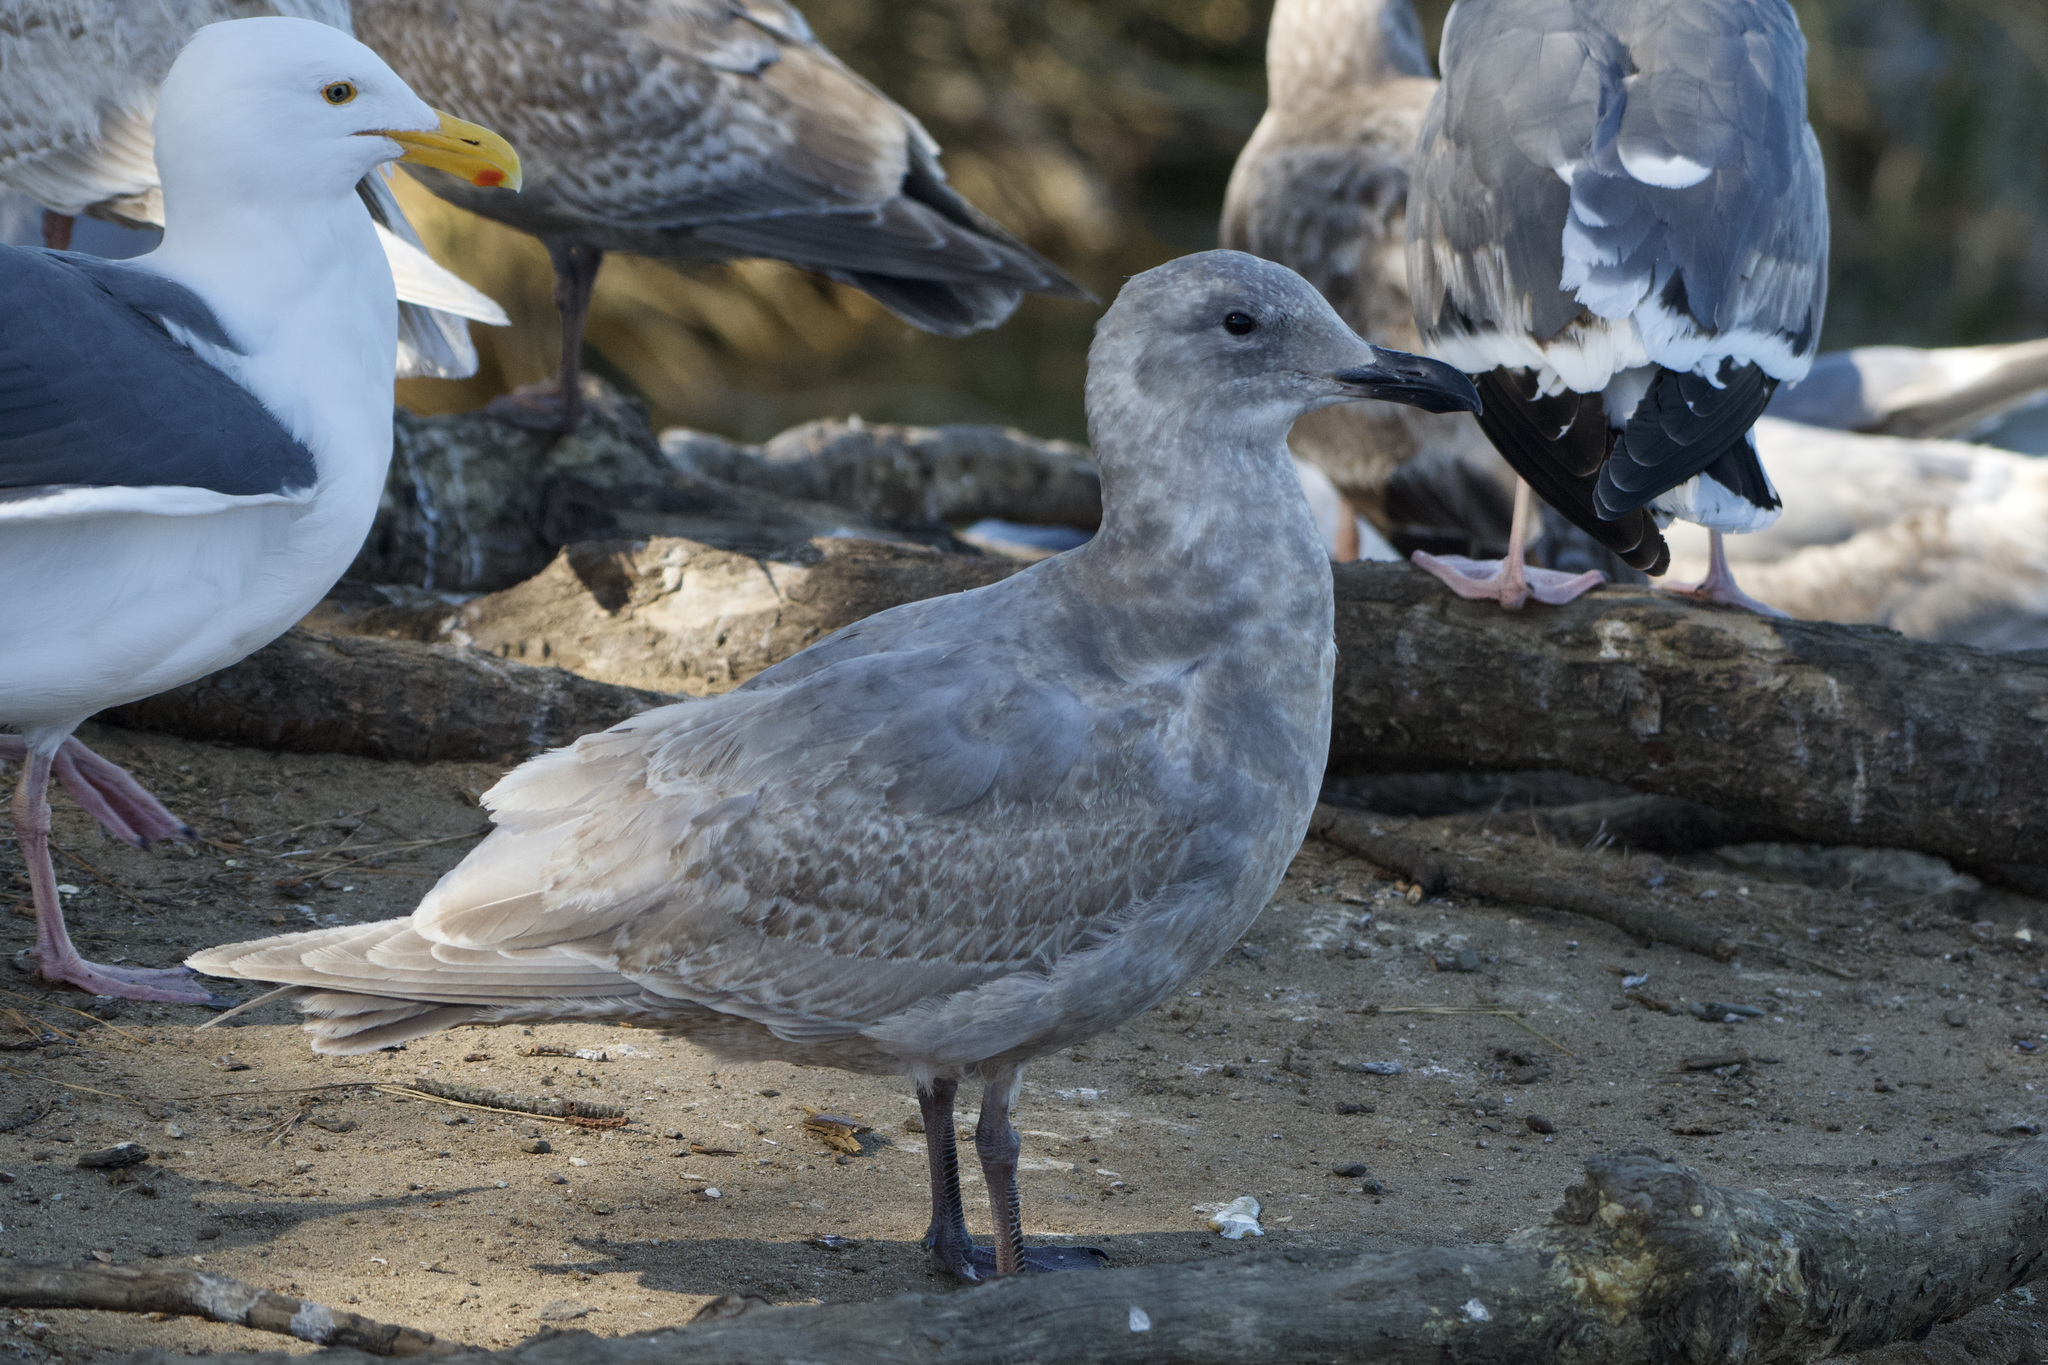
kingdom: Animalia
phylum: Chordata
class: Aves
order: Charadriiformes
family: Laridae
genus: Larus
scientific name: Larus glaucescens
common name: Glaucous-winged gull
